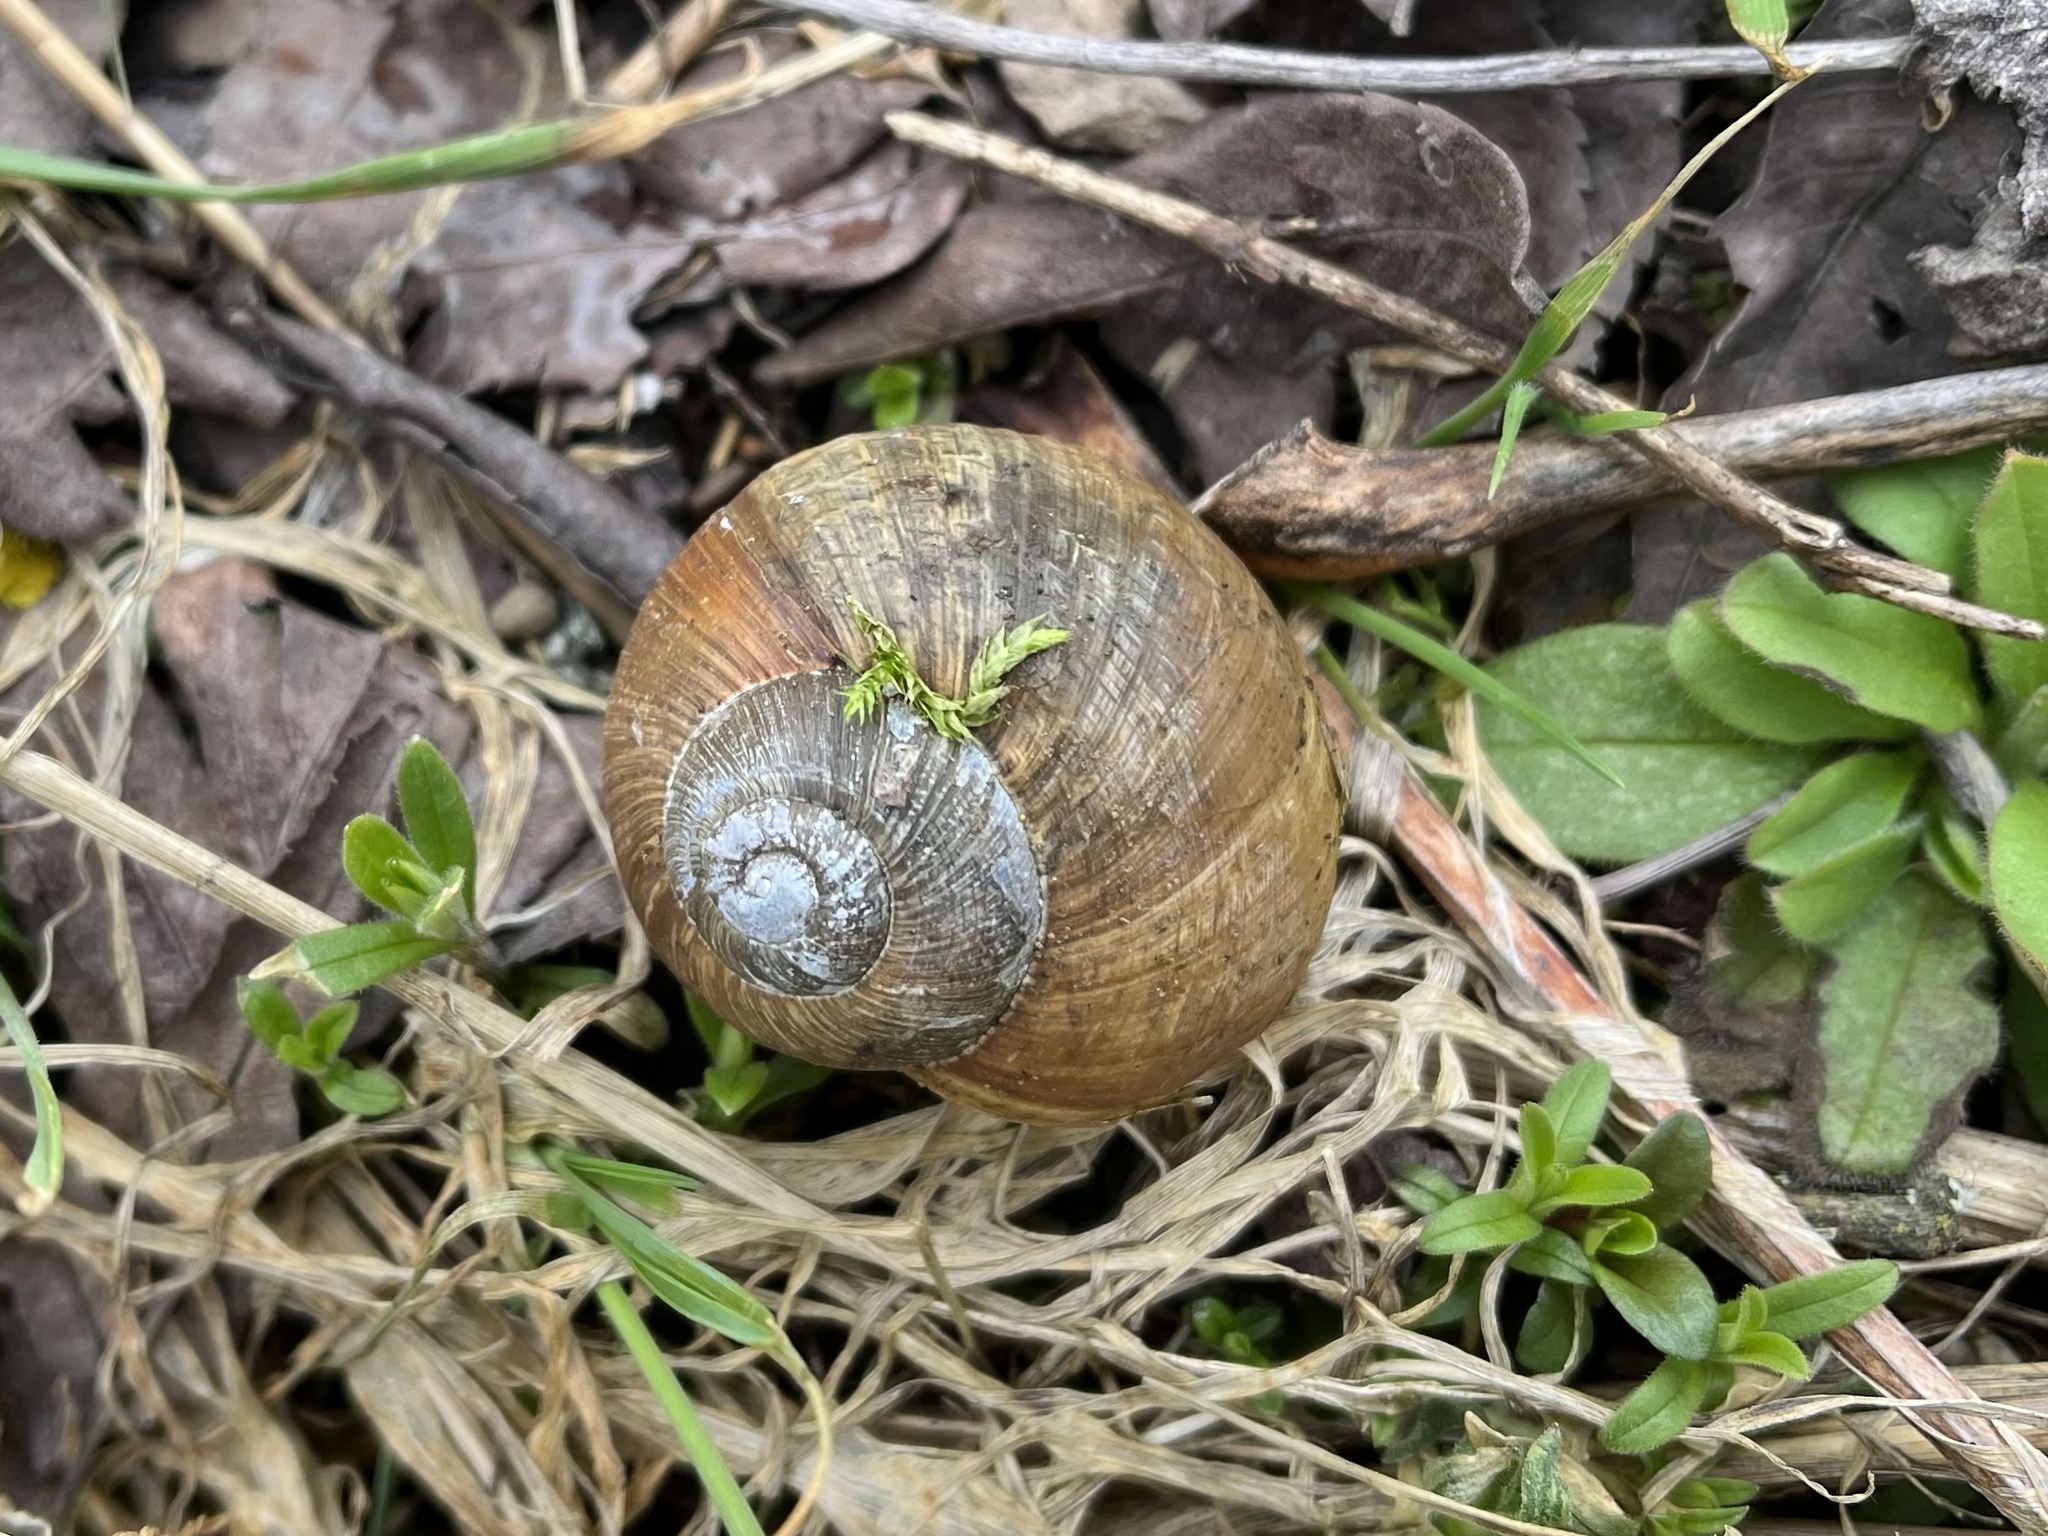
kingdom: Animalia
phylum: Mollusca
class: Gastropoda
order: Stylommatophora
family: Helicidae
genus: Helix
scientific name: Helix pomatia
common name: Roman snail
